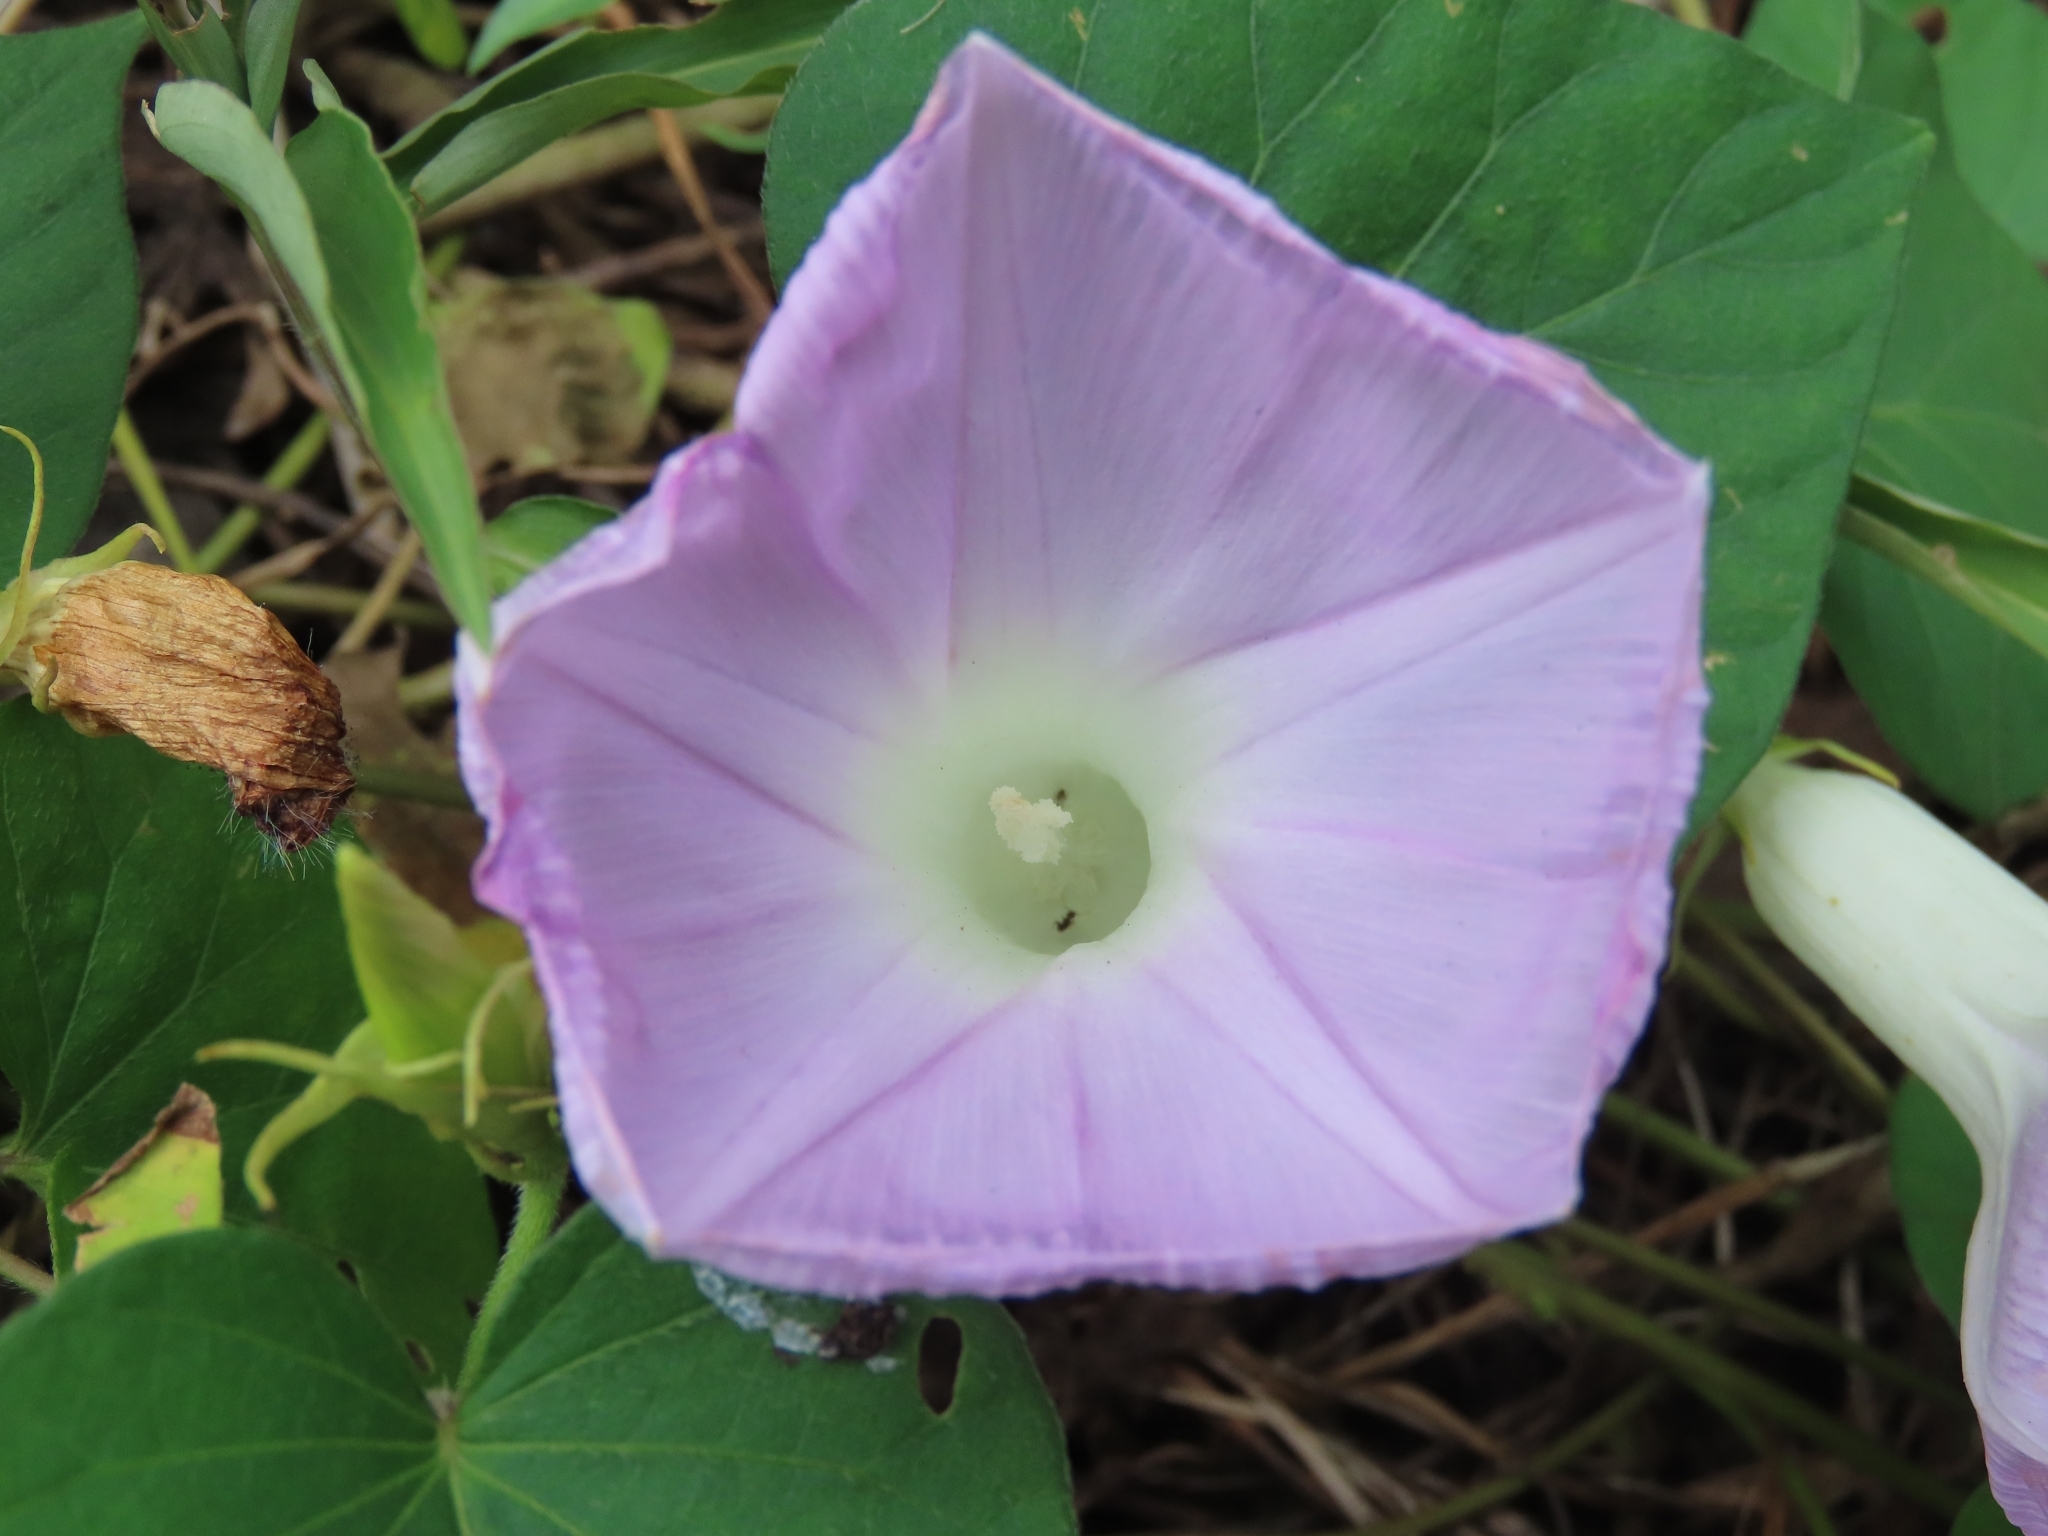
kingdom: Plantae
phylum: Tracheophyta
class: Magnoliopsida
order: Solanales
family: Convolvulaceae
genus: Ipomoea
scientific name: Ipomoea indica
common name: Blue dawnflower
